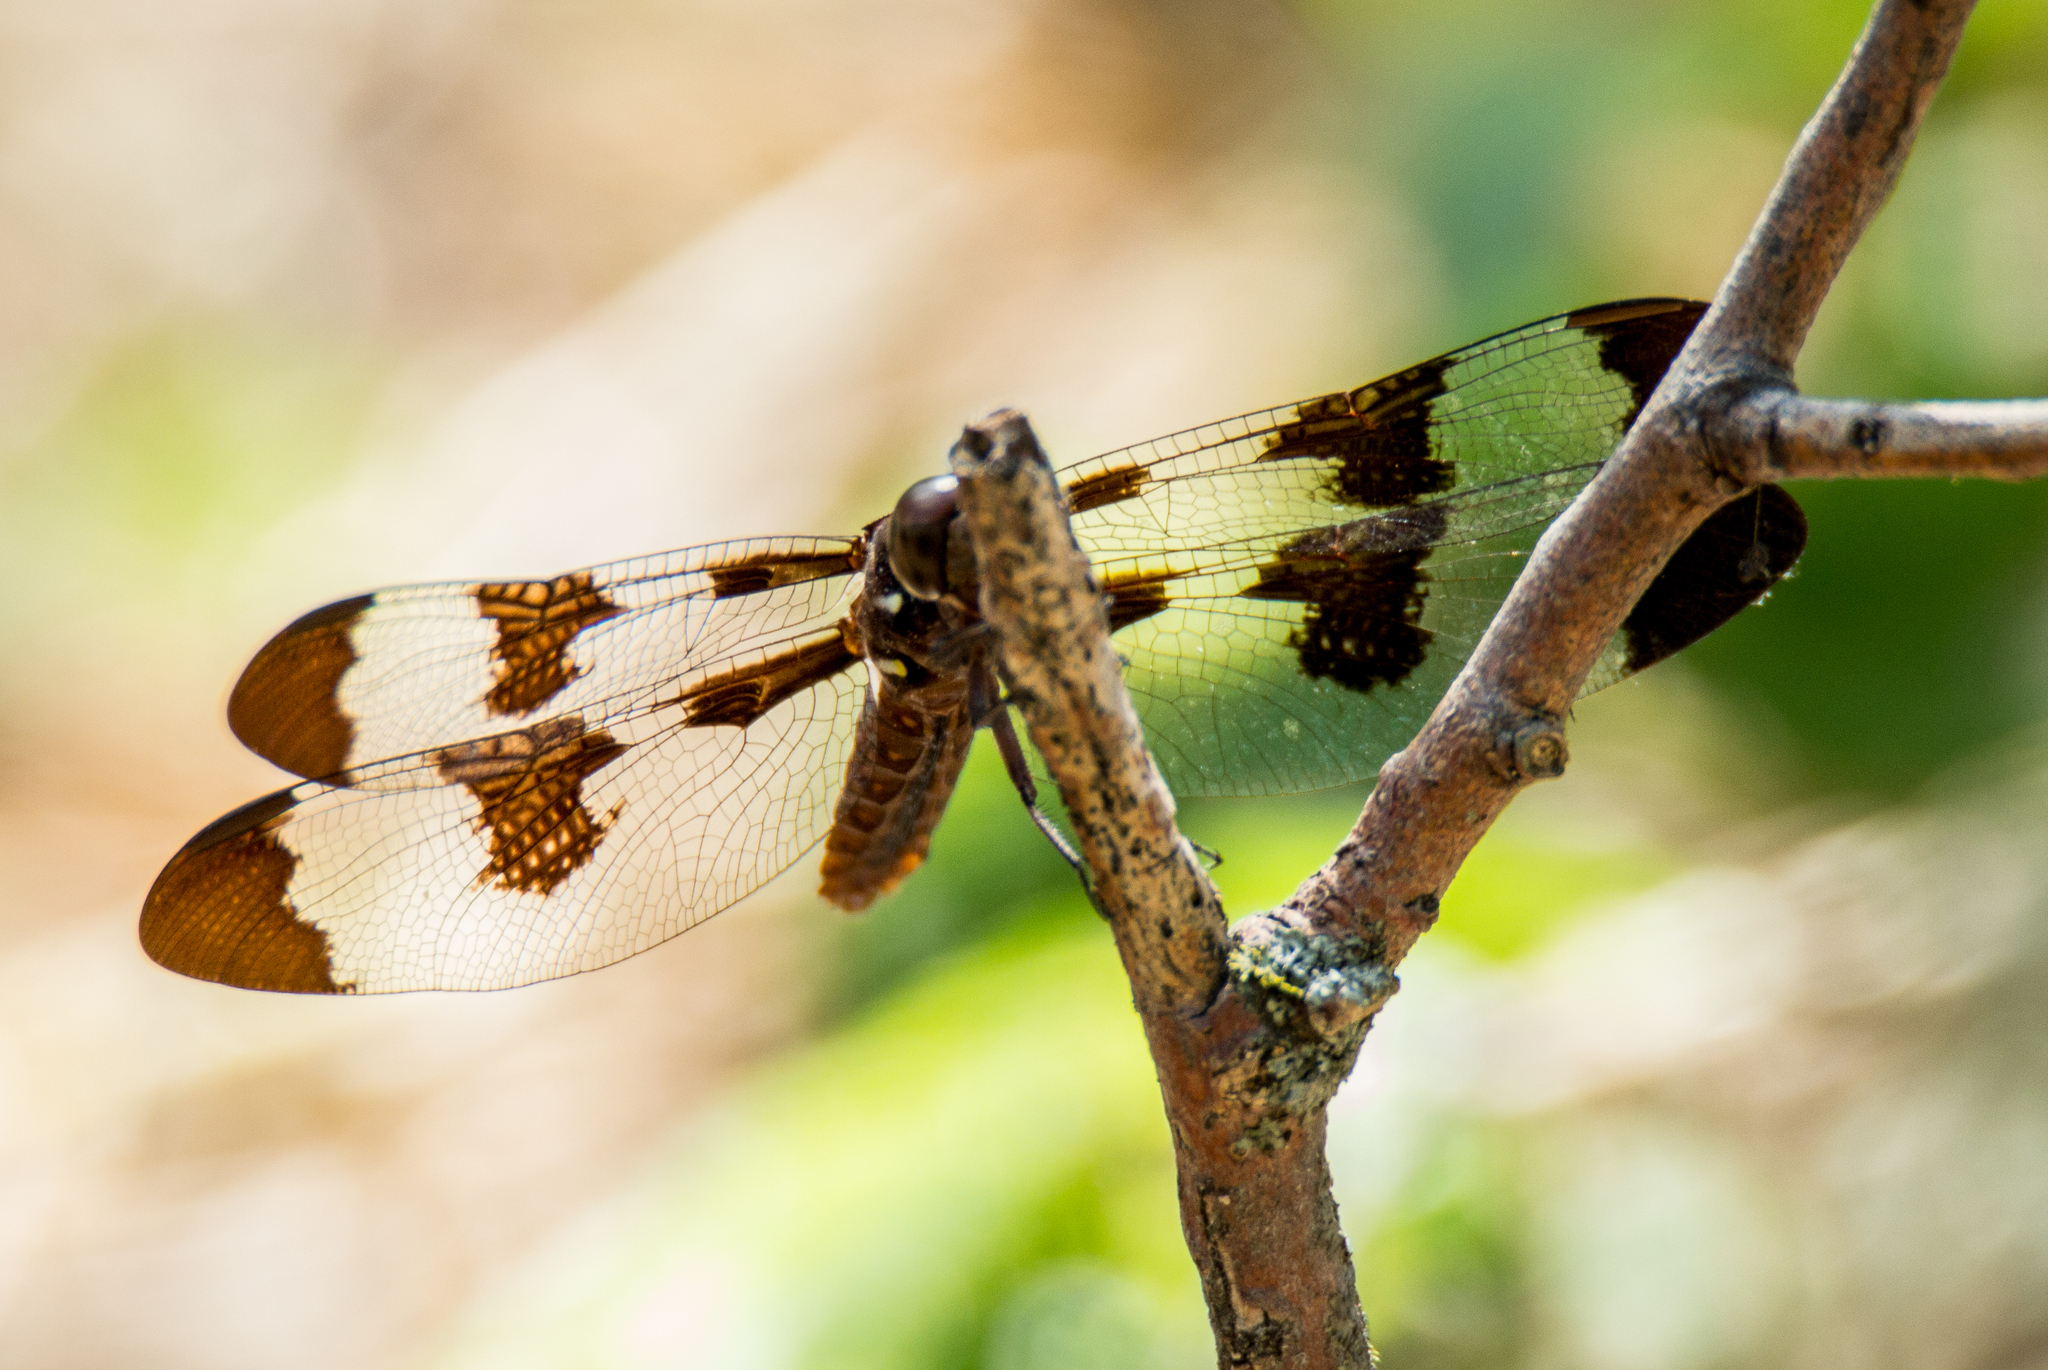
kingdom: Animalia
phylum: Arthropoda
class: Insecta
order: Odonata
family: Libellulidae
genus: Plathemis
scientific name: Plathemis lydia
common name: Common whitetail
